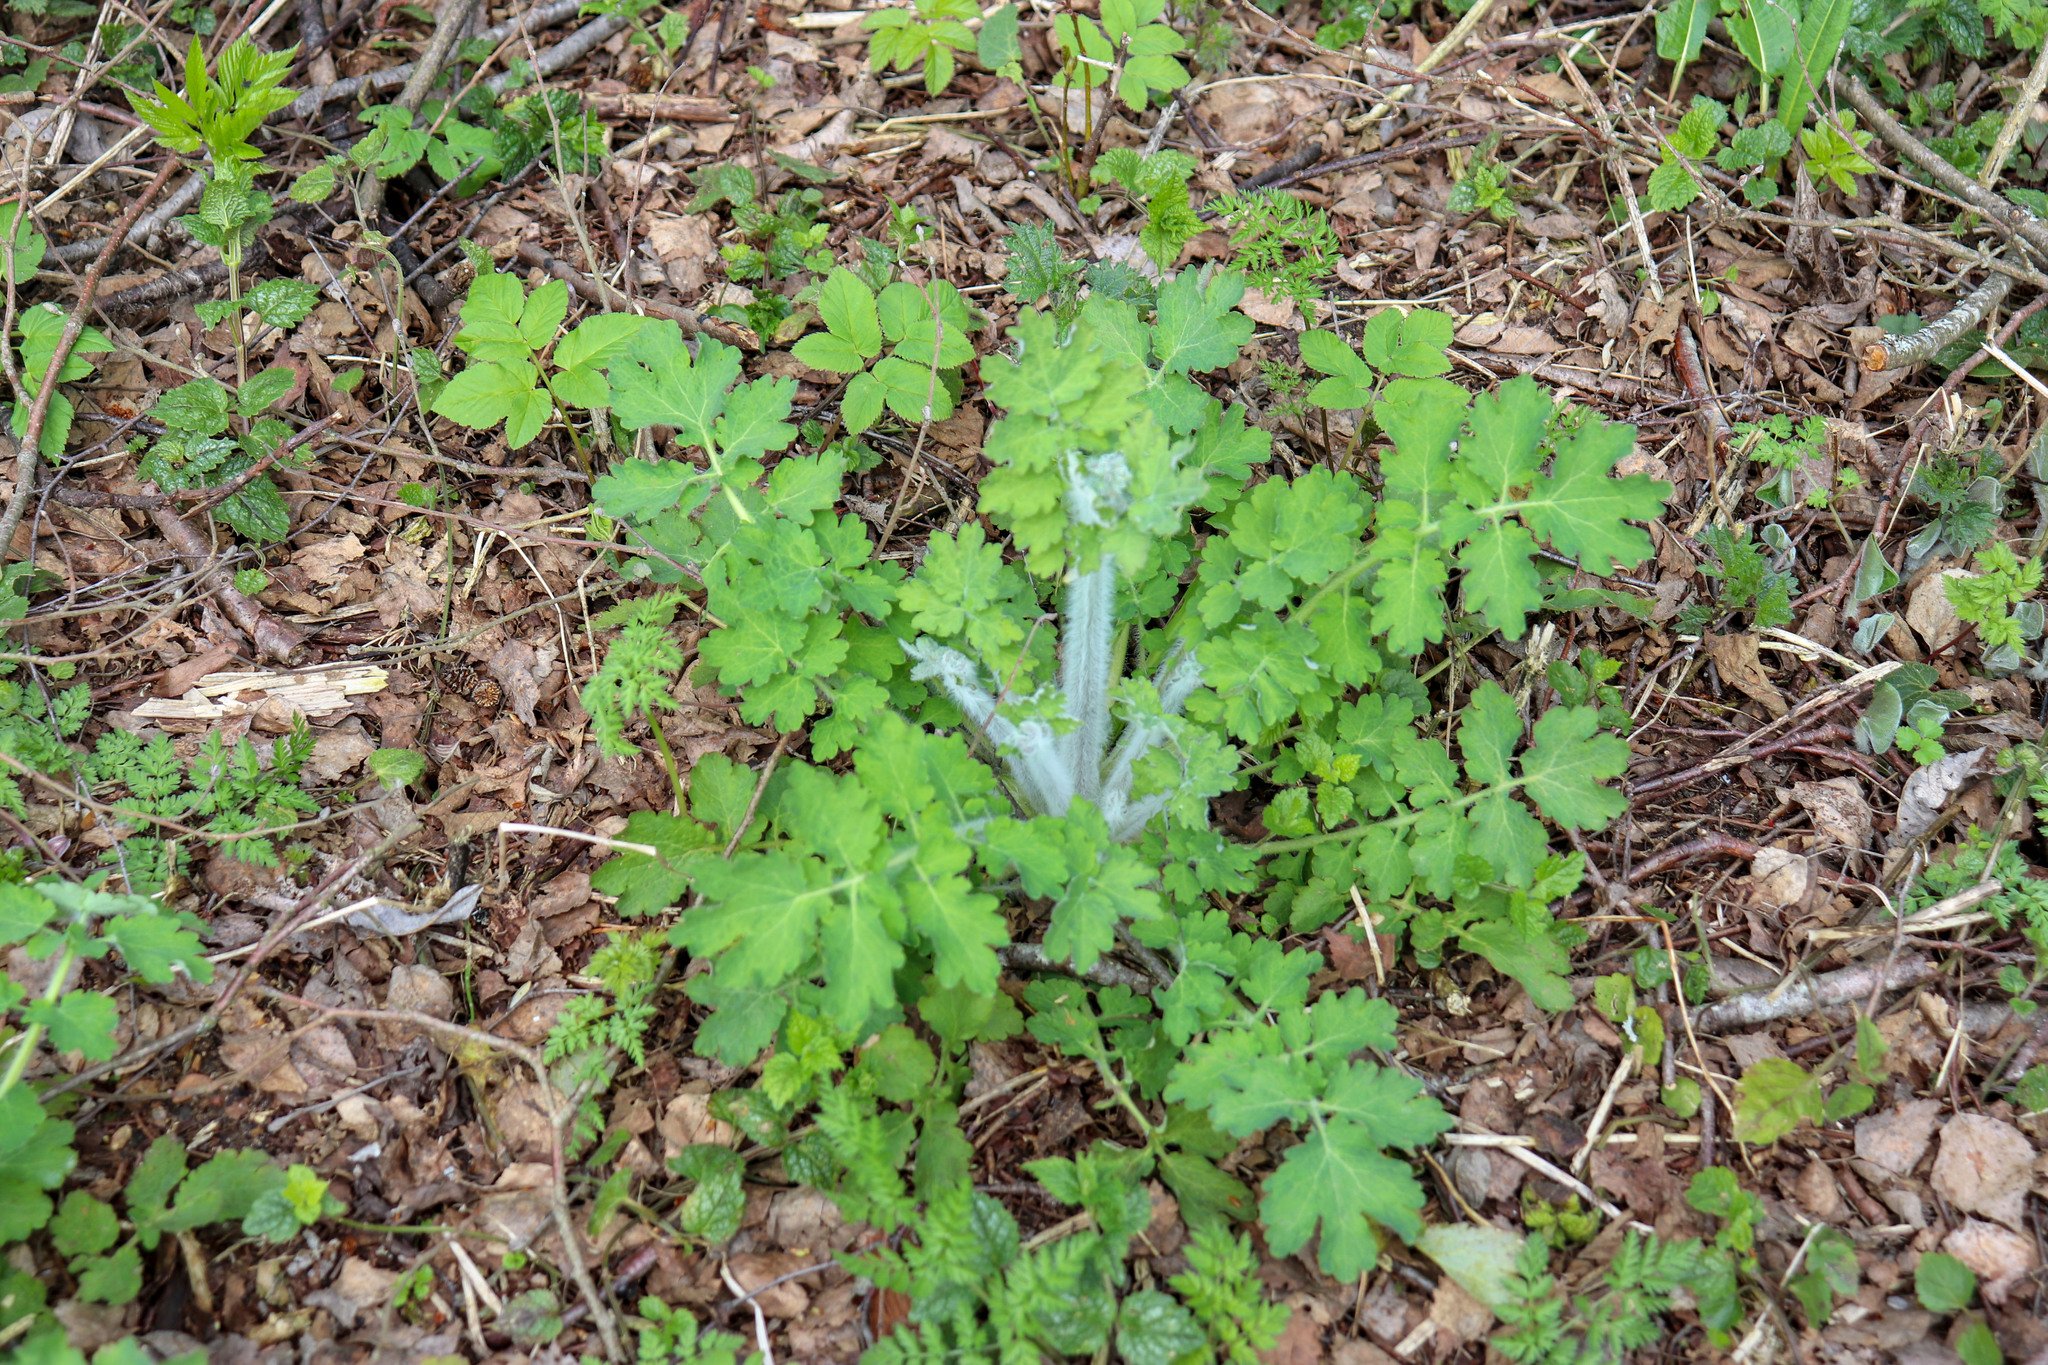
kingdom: Plantae
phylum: Tracheophyta
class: Magnoliopsida
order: Ranunculales
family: Papaveraceae
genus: Chelidonium
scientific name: Chelidonium majus
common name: Greater celandine
